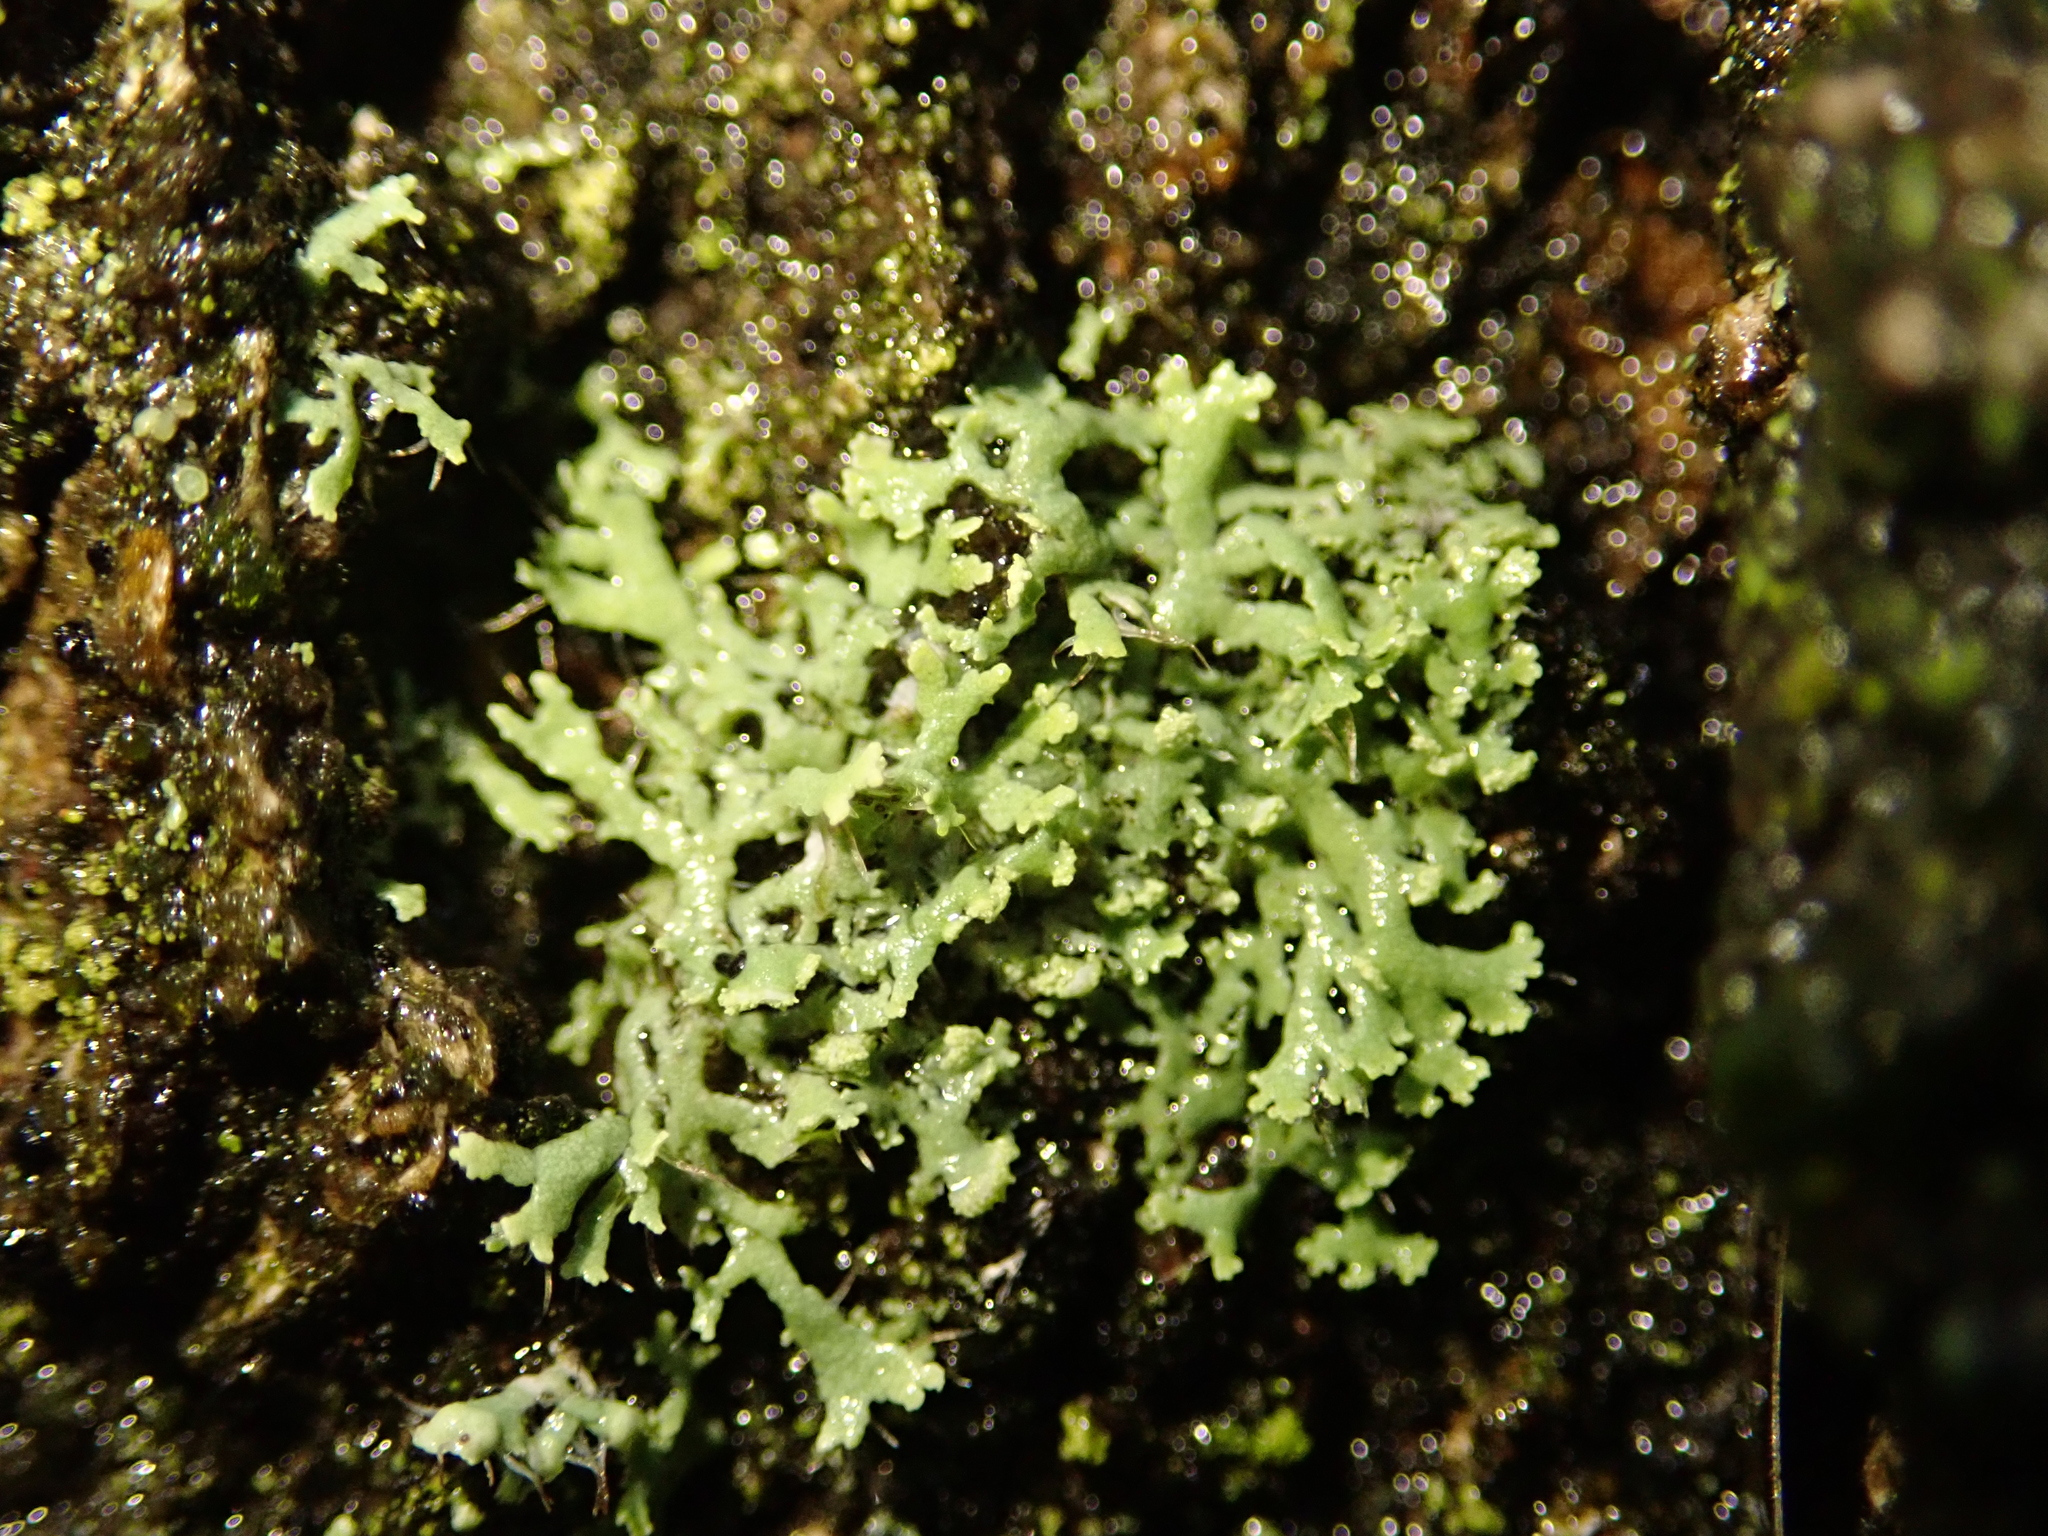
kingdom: Fungi
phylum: Ascomycota
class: Lecanoromycetes
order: Caliciales
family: Physciaceae
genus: Physcia
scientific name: Physcia tenella
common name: Fringed rosette lichen
